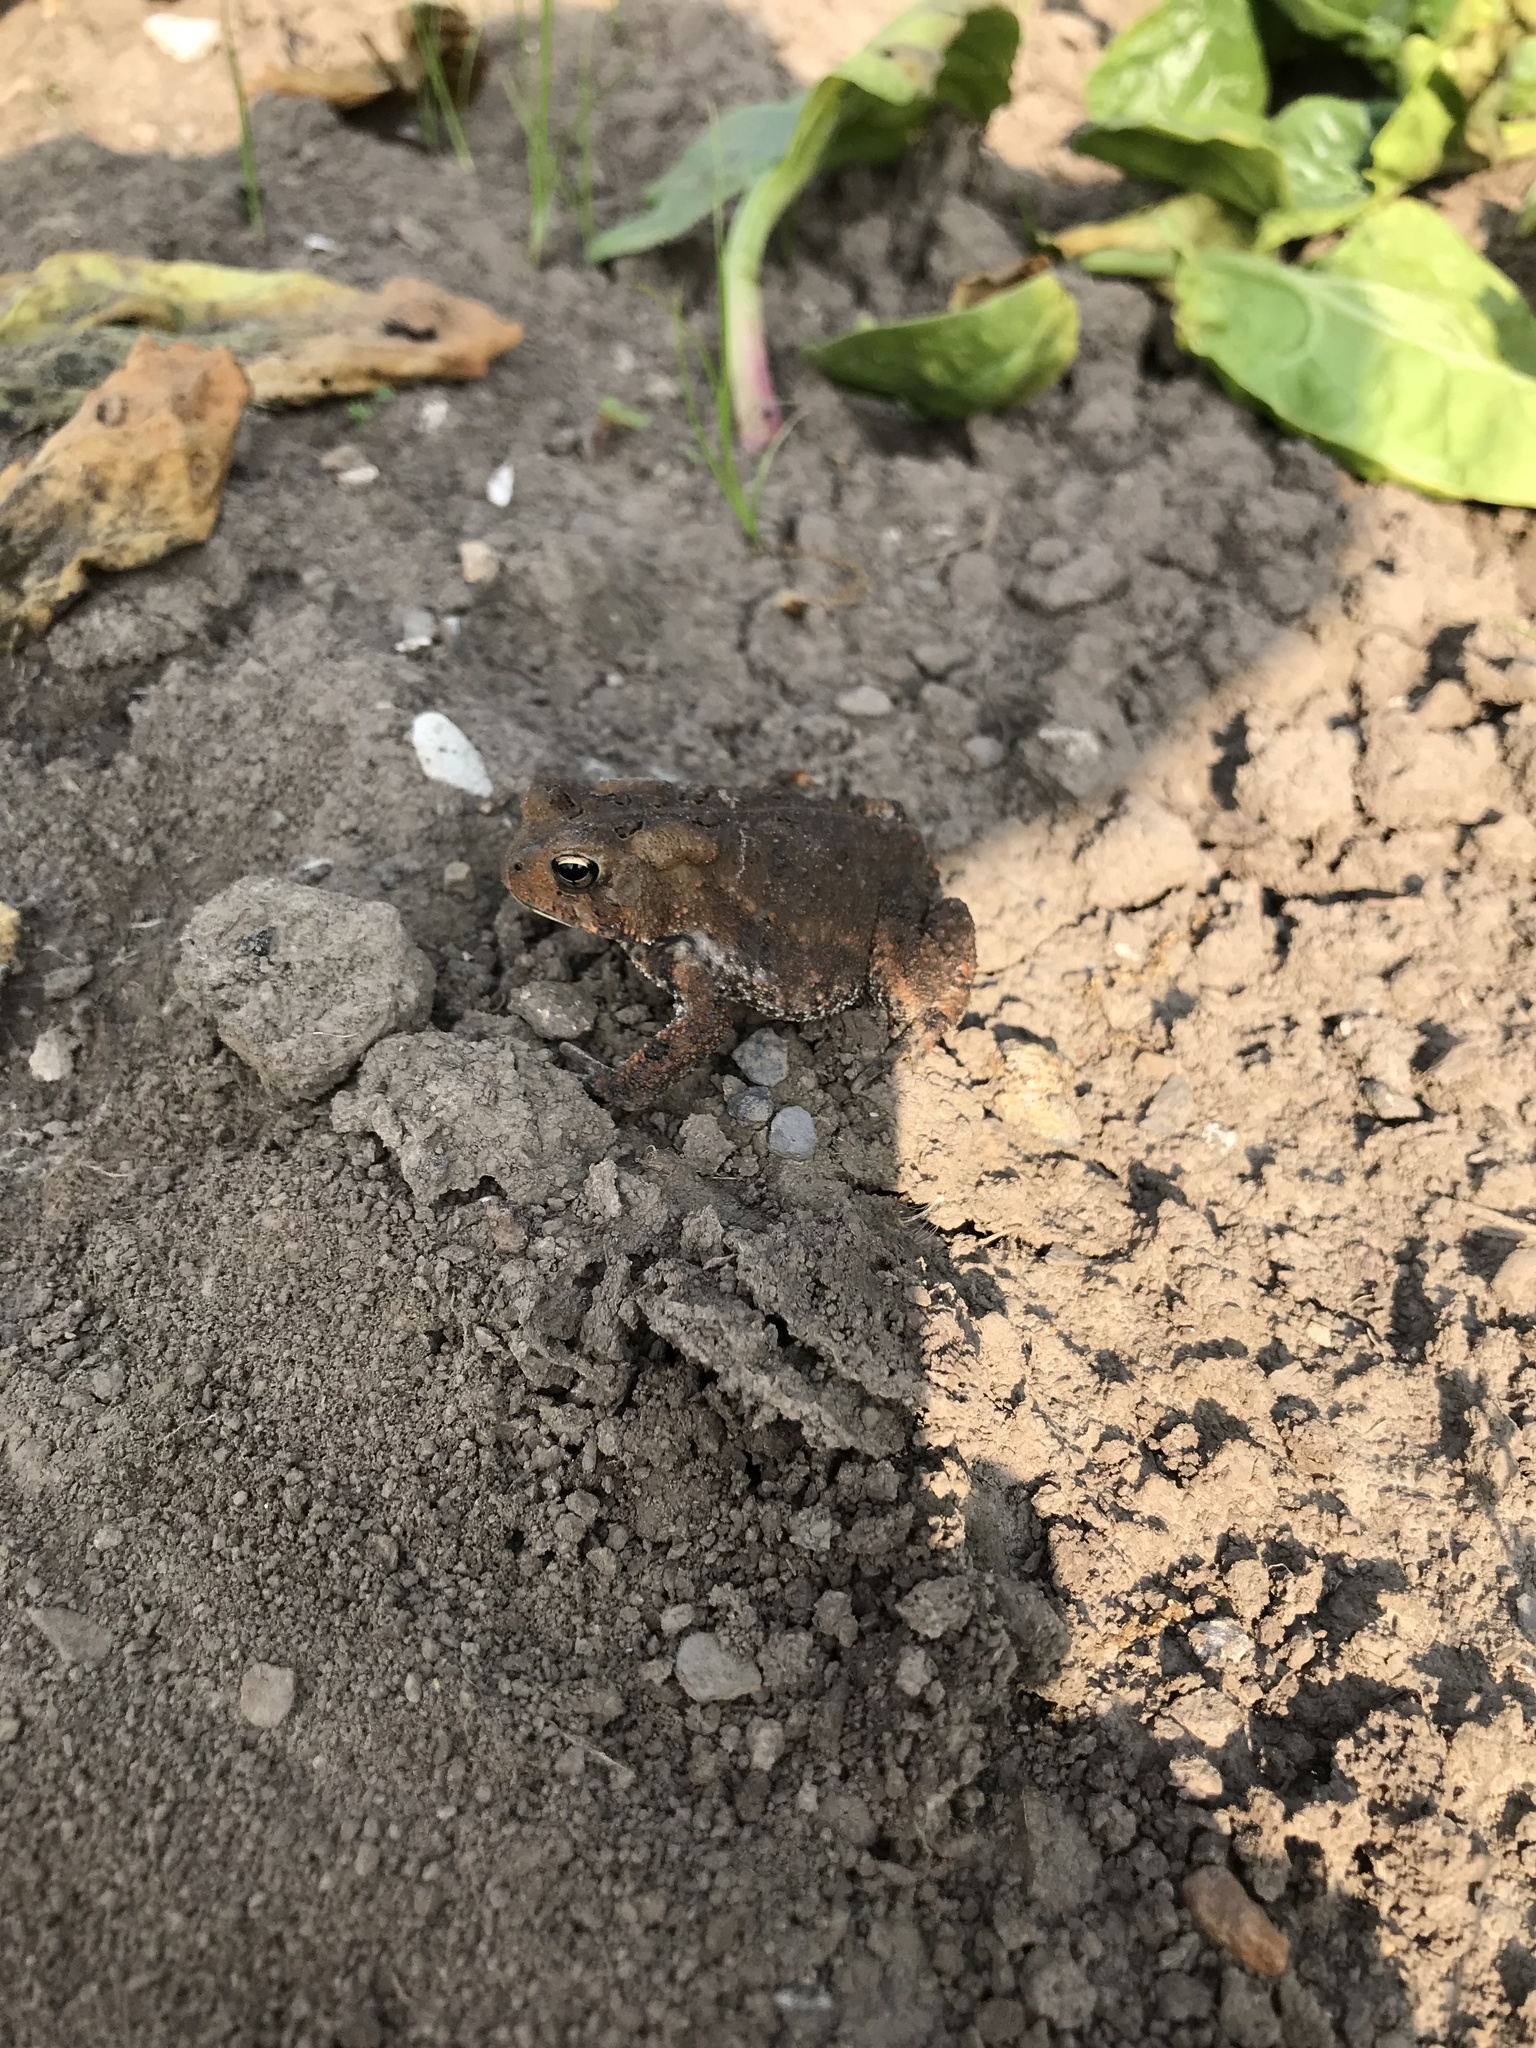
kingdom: Animalia
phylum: Chordata
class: Amphibia
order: Anura
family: Bufonidae
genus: Anaxyrus
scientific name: Anaxyrus americanus
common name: American toad
